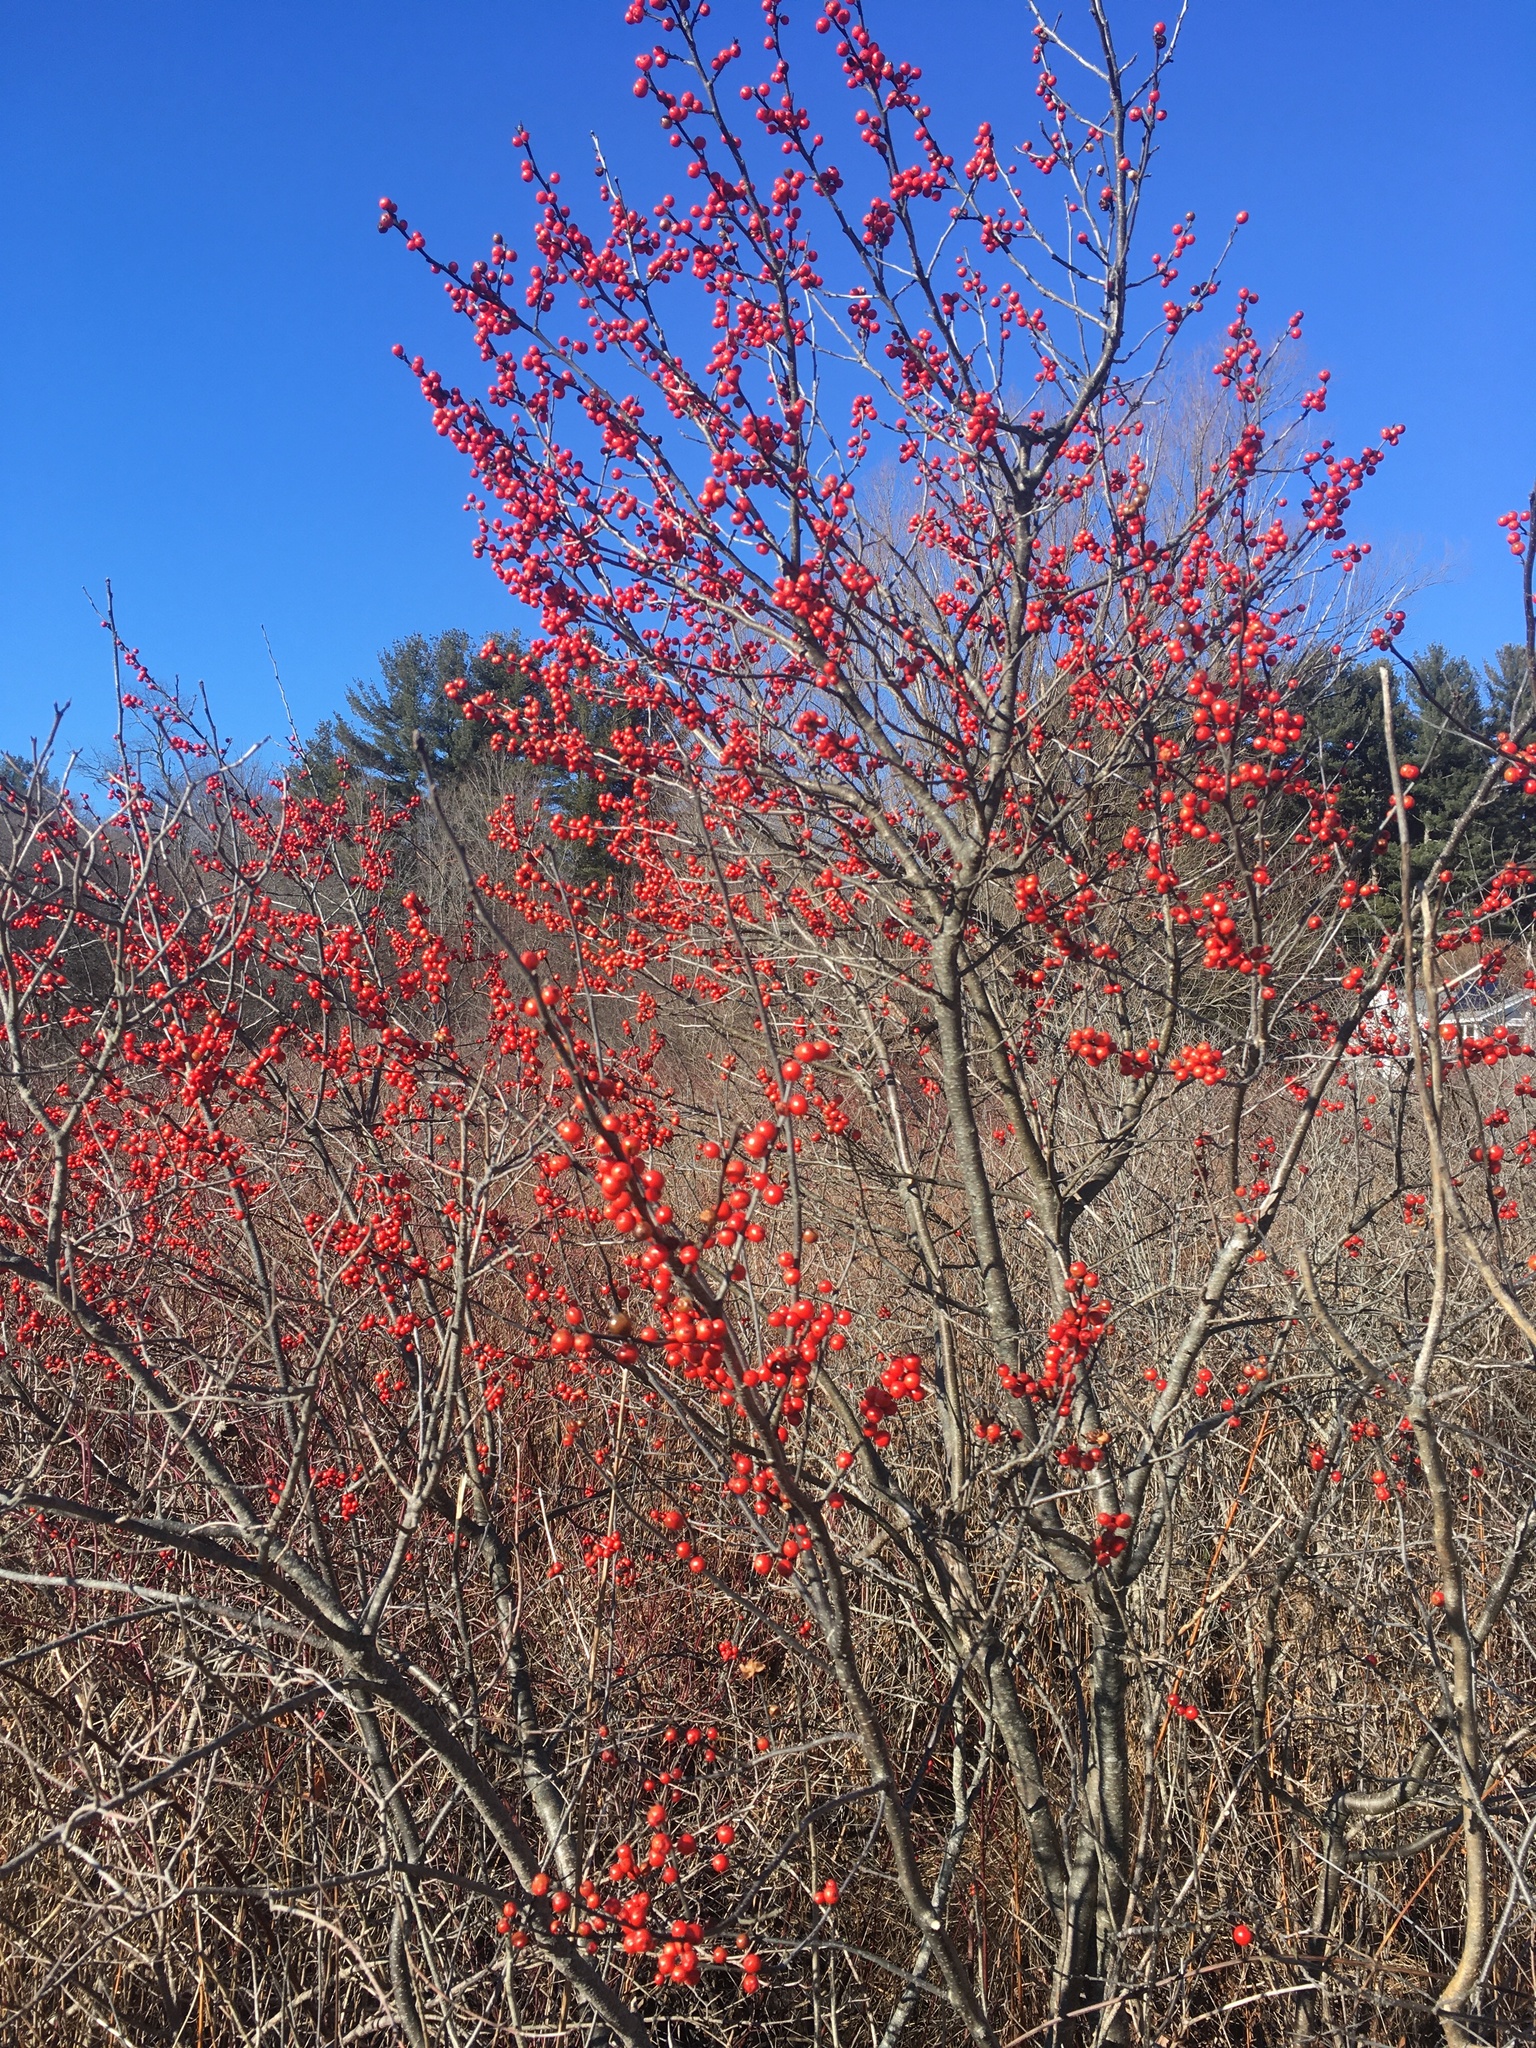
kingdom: Plantae
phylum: Tracheophyta
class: Magnoliopsida
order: Aquifoliales
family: Aquifoliaceae
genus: Ilex
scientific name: Ilex verticillata
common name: Virginia winterberry
